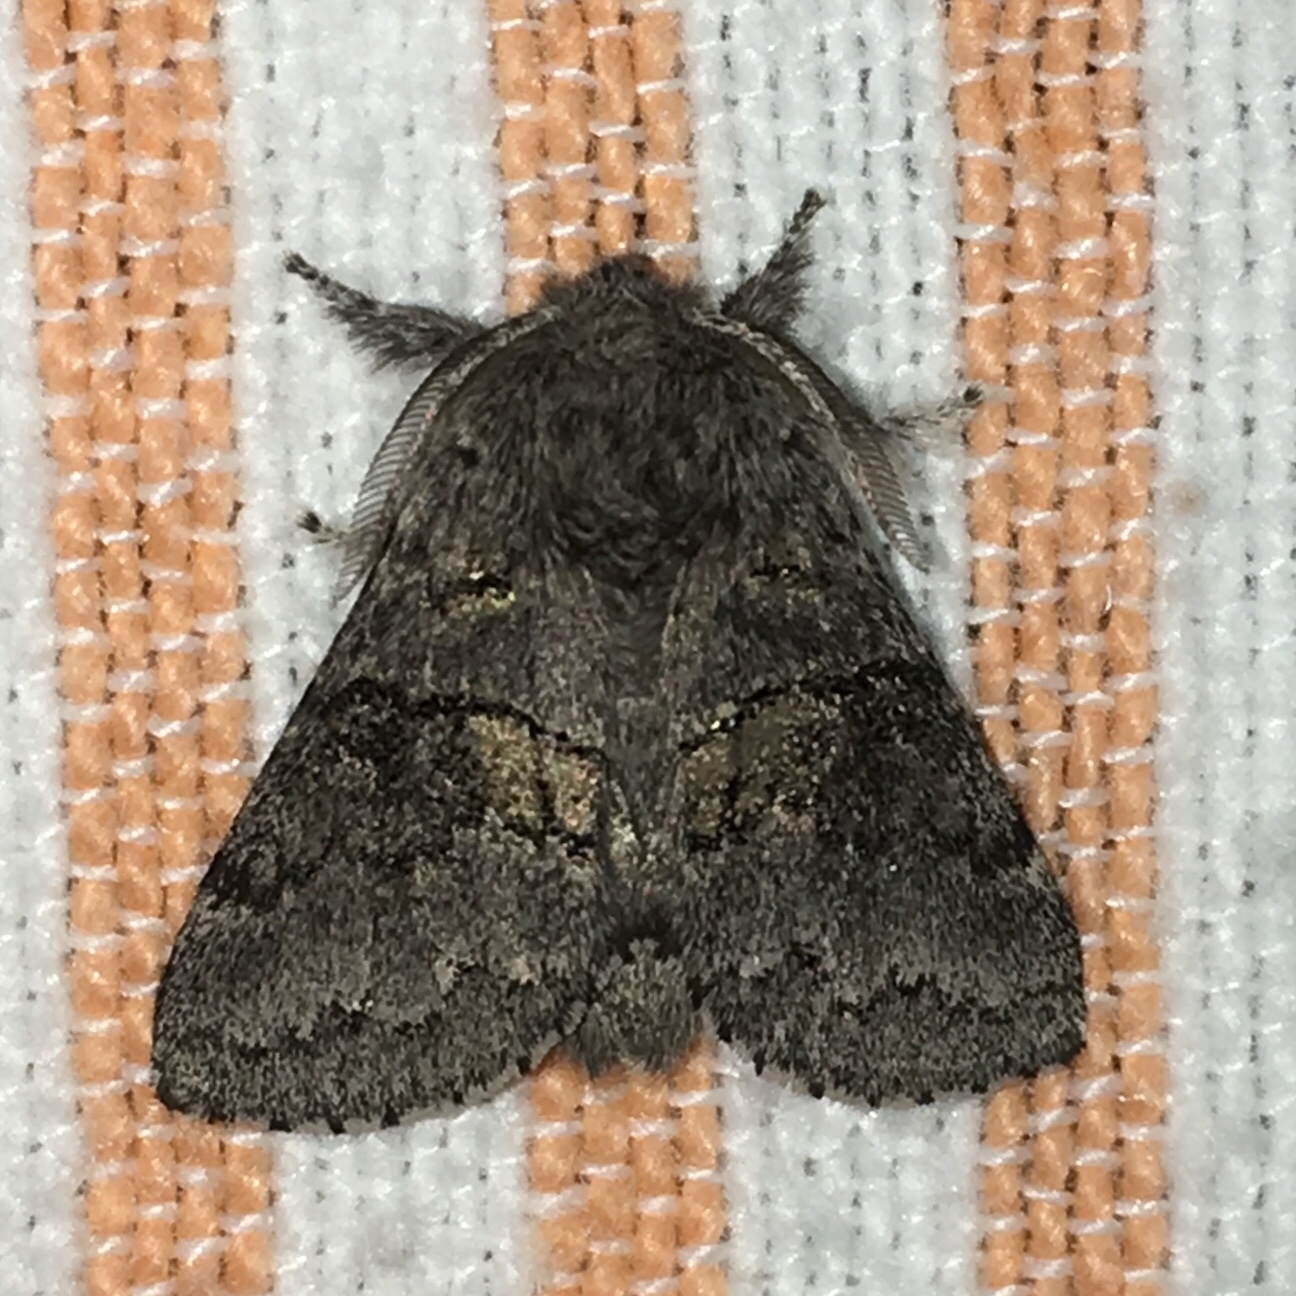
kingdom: Animalia
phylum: Arthropoda
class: Insecta
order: Lepidoptera
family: Notodontidae
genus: Gluphisia
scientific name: Gluphisia septentrionis
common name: Common gluphisia
